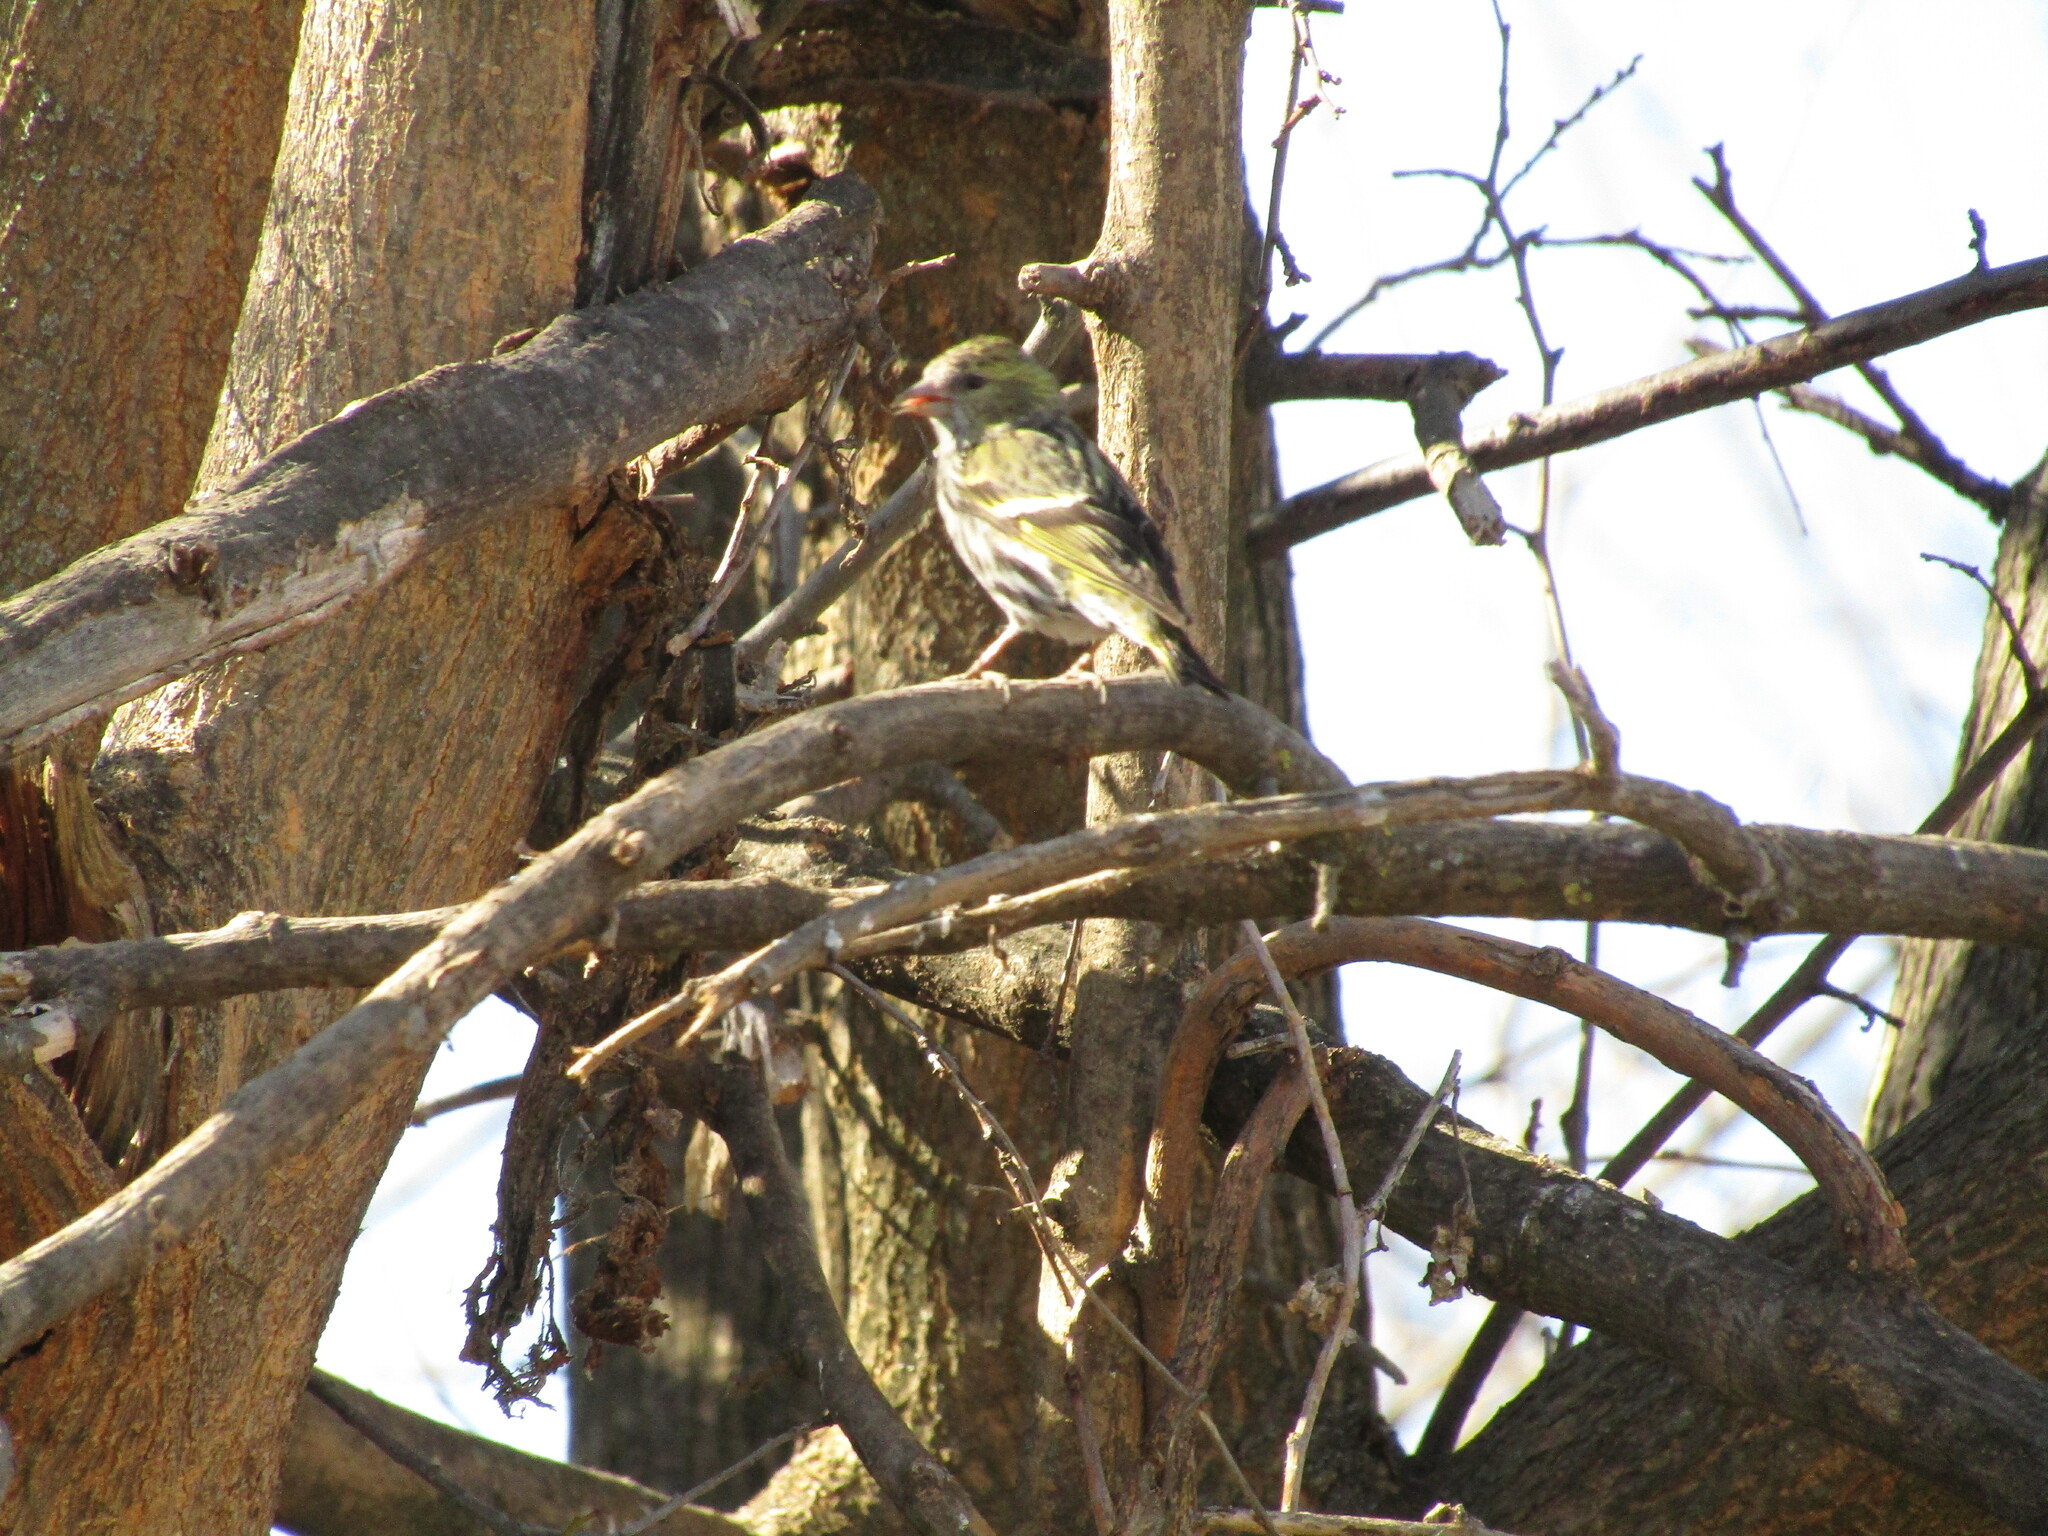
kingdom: Animalia
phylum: Chordata
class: Aves
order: Passeriformes
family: Fringillidae
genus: Spinus
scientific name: Spinus spinus
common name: Eurasian siskin
